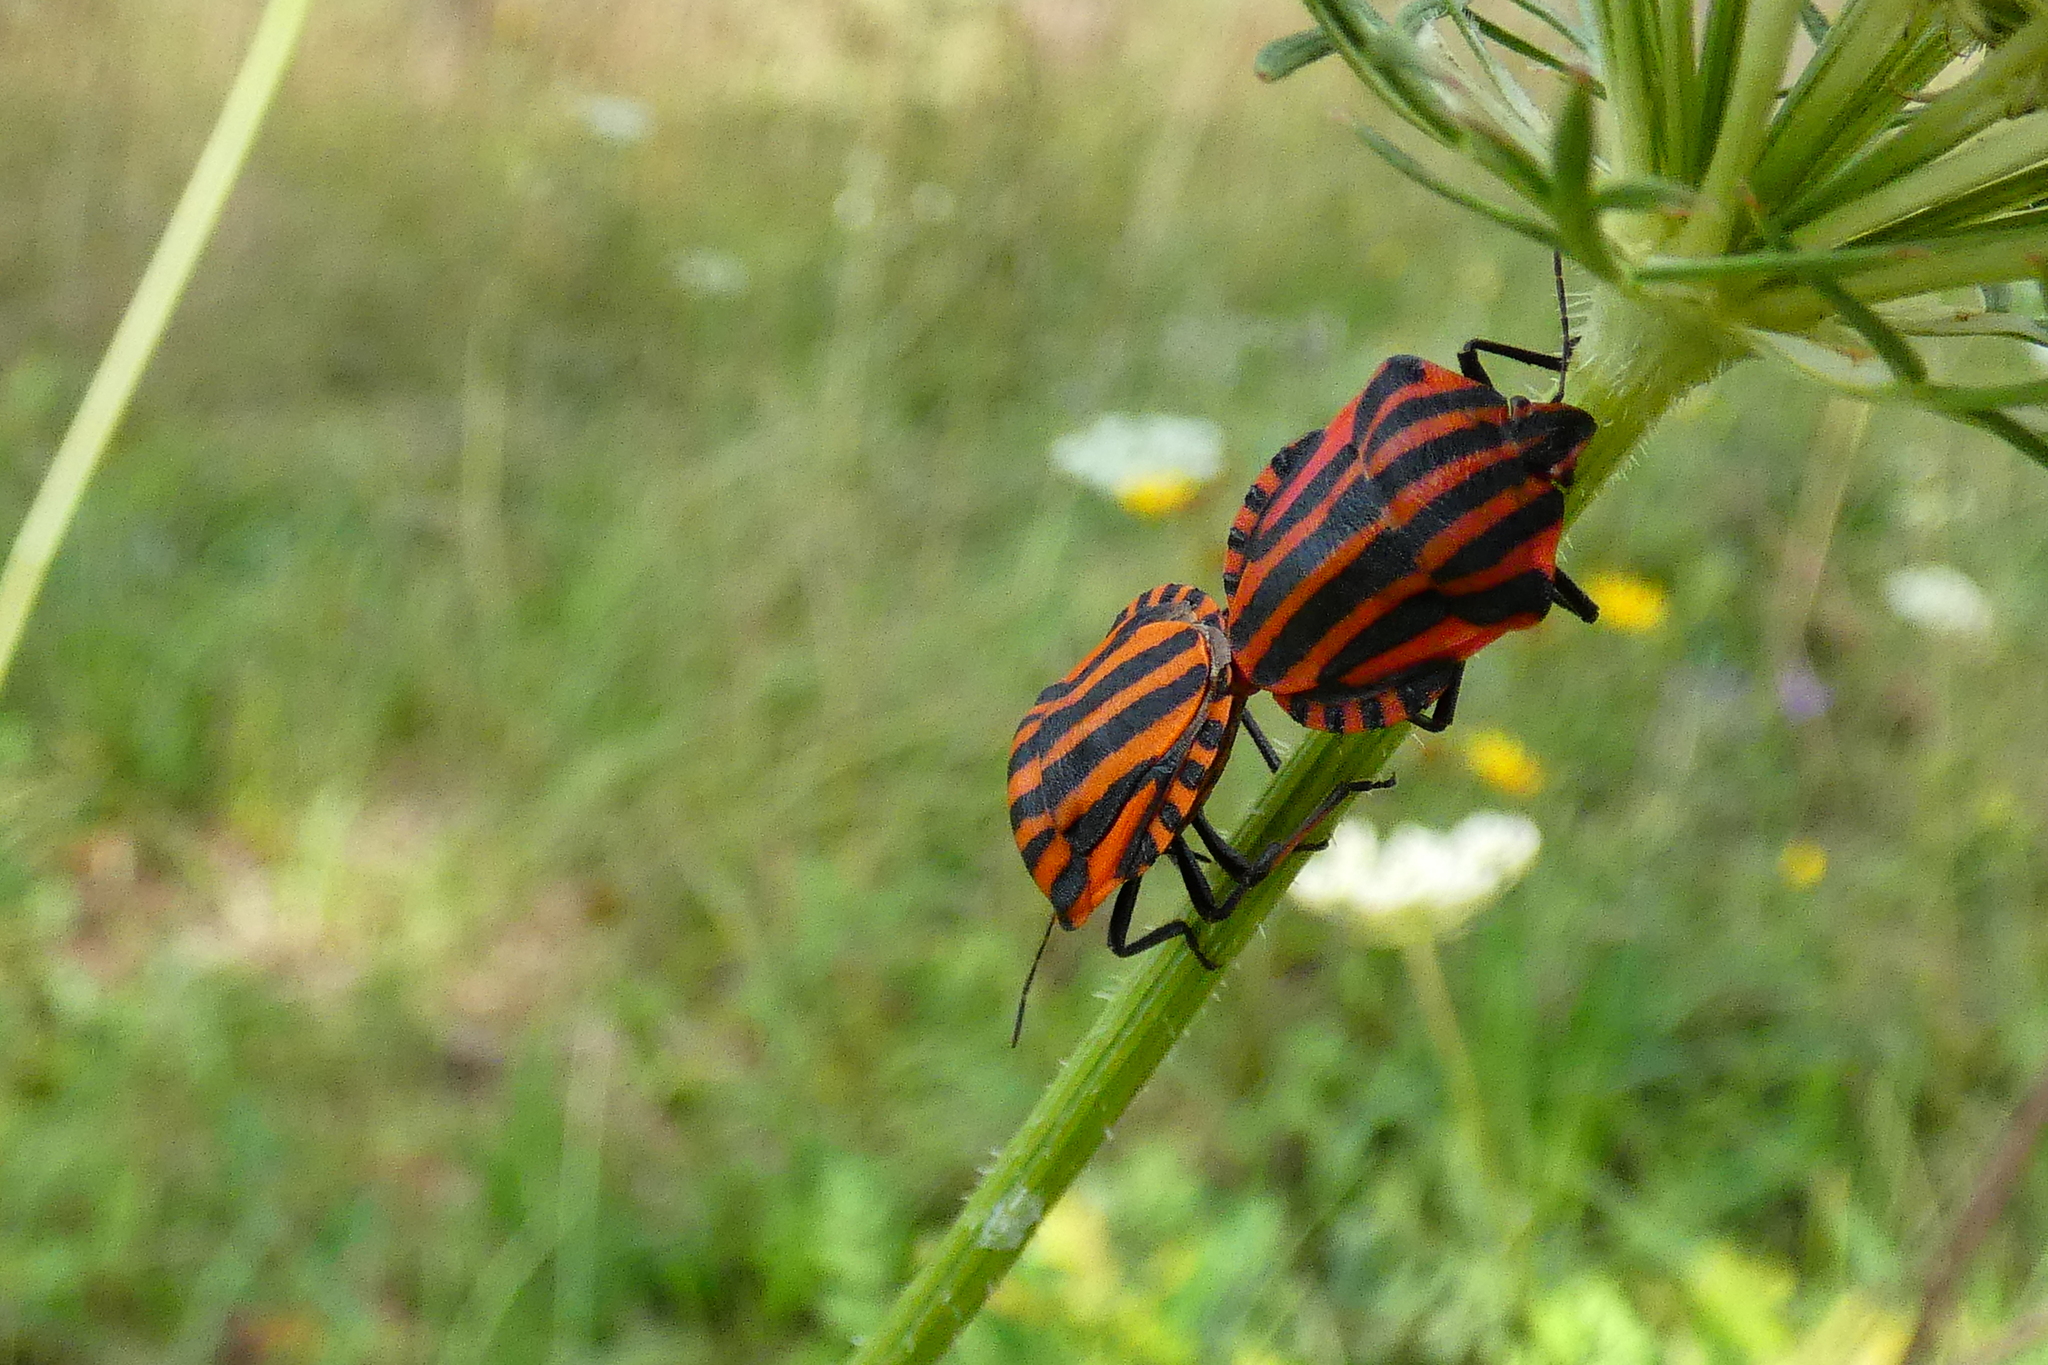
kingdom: Animalia
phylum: Arthropoda
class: Insecta
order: Hemiptera
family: Pentatomidae
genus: Graphosoma
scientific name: Graphosoma italicum
